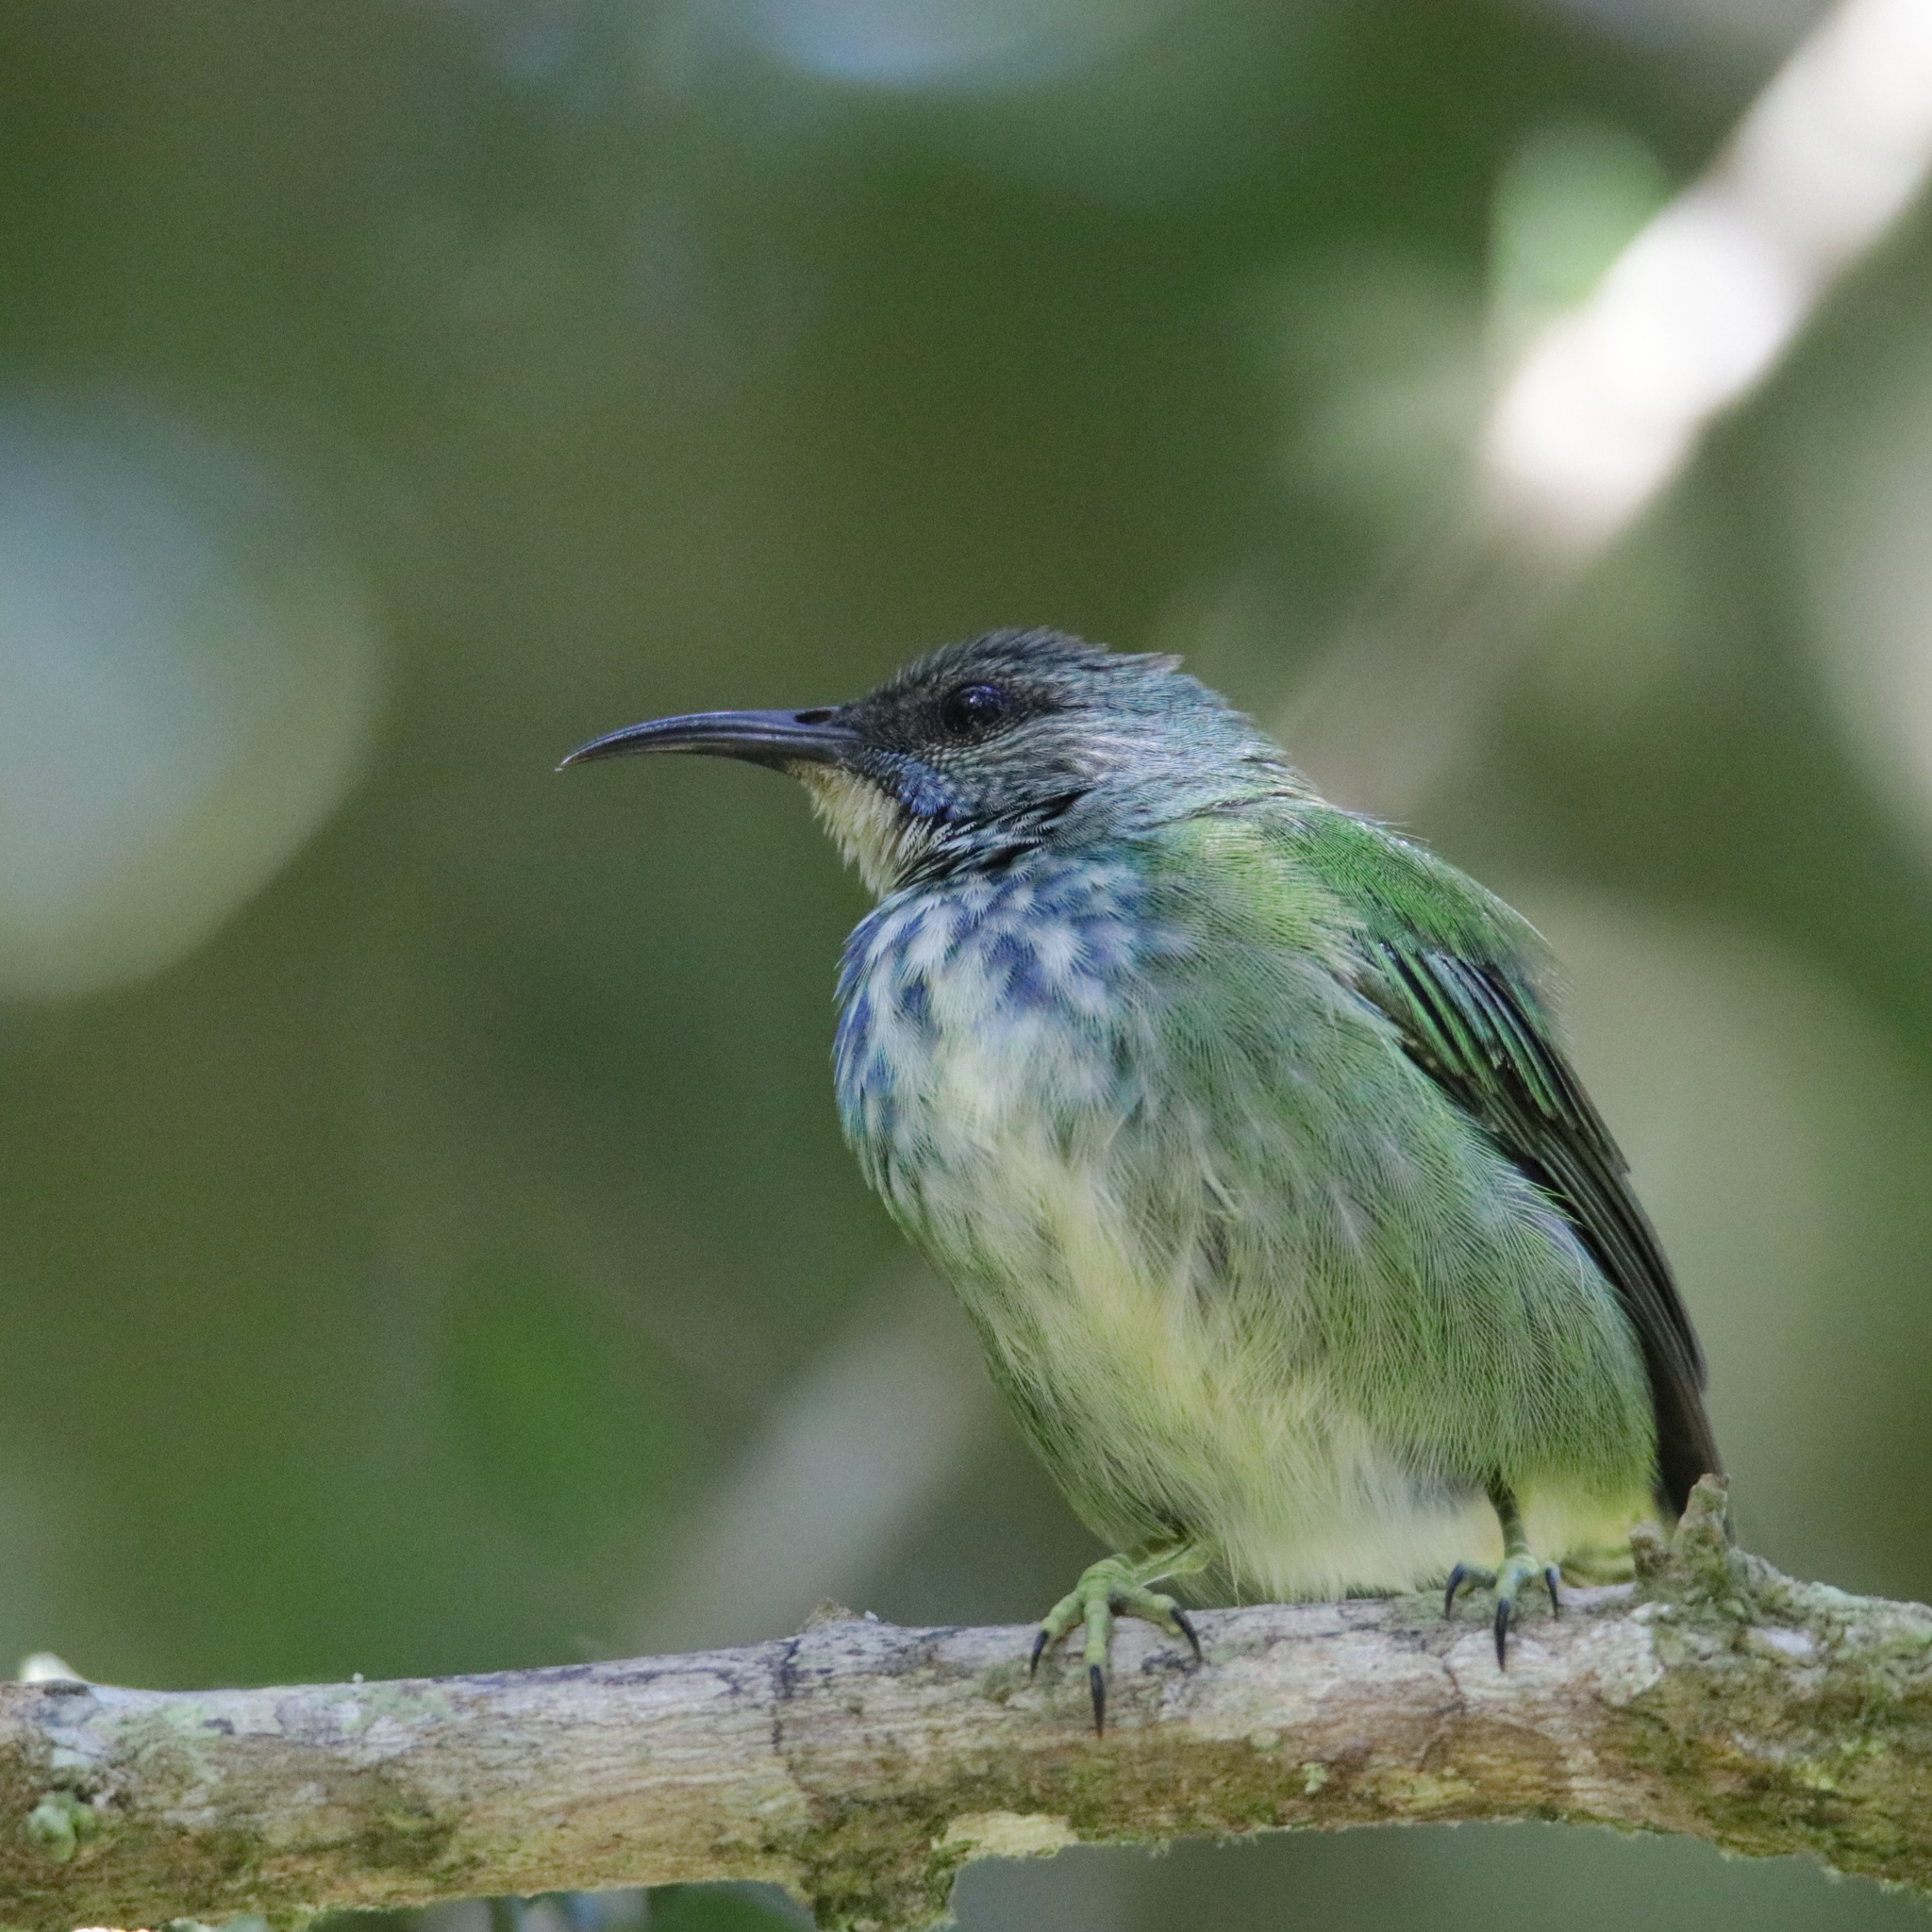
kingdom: Animalia
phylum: Chordata
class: Aves
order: Passeriformes
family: Thraupidae
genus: Cyanerpes
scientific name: Cyanerpes lucidus
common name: Shining honeycreeper
